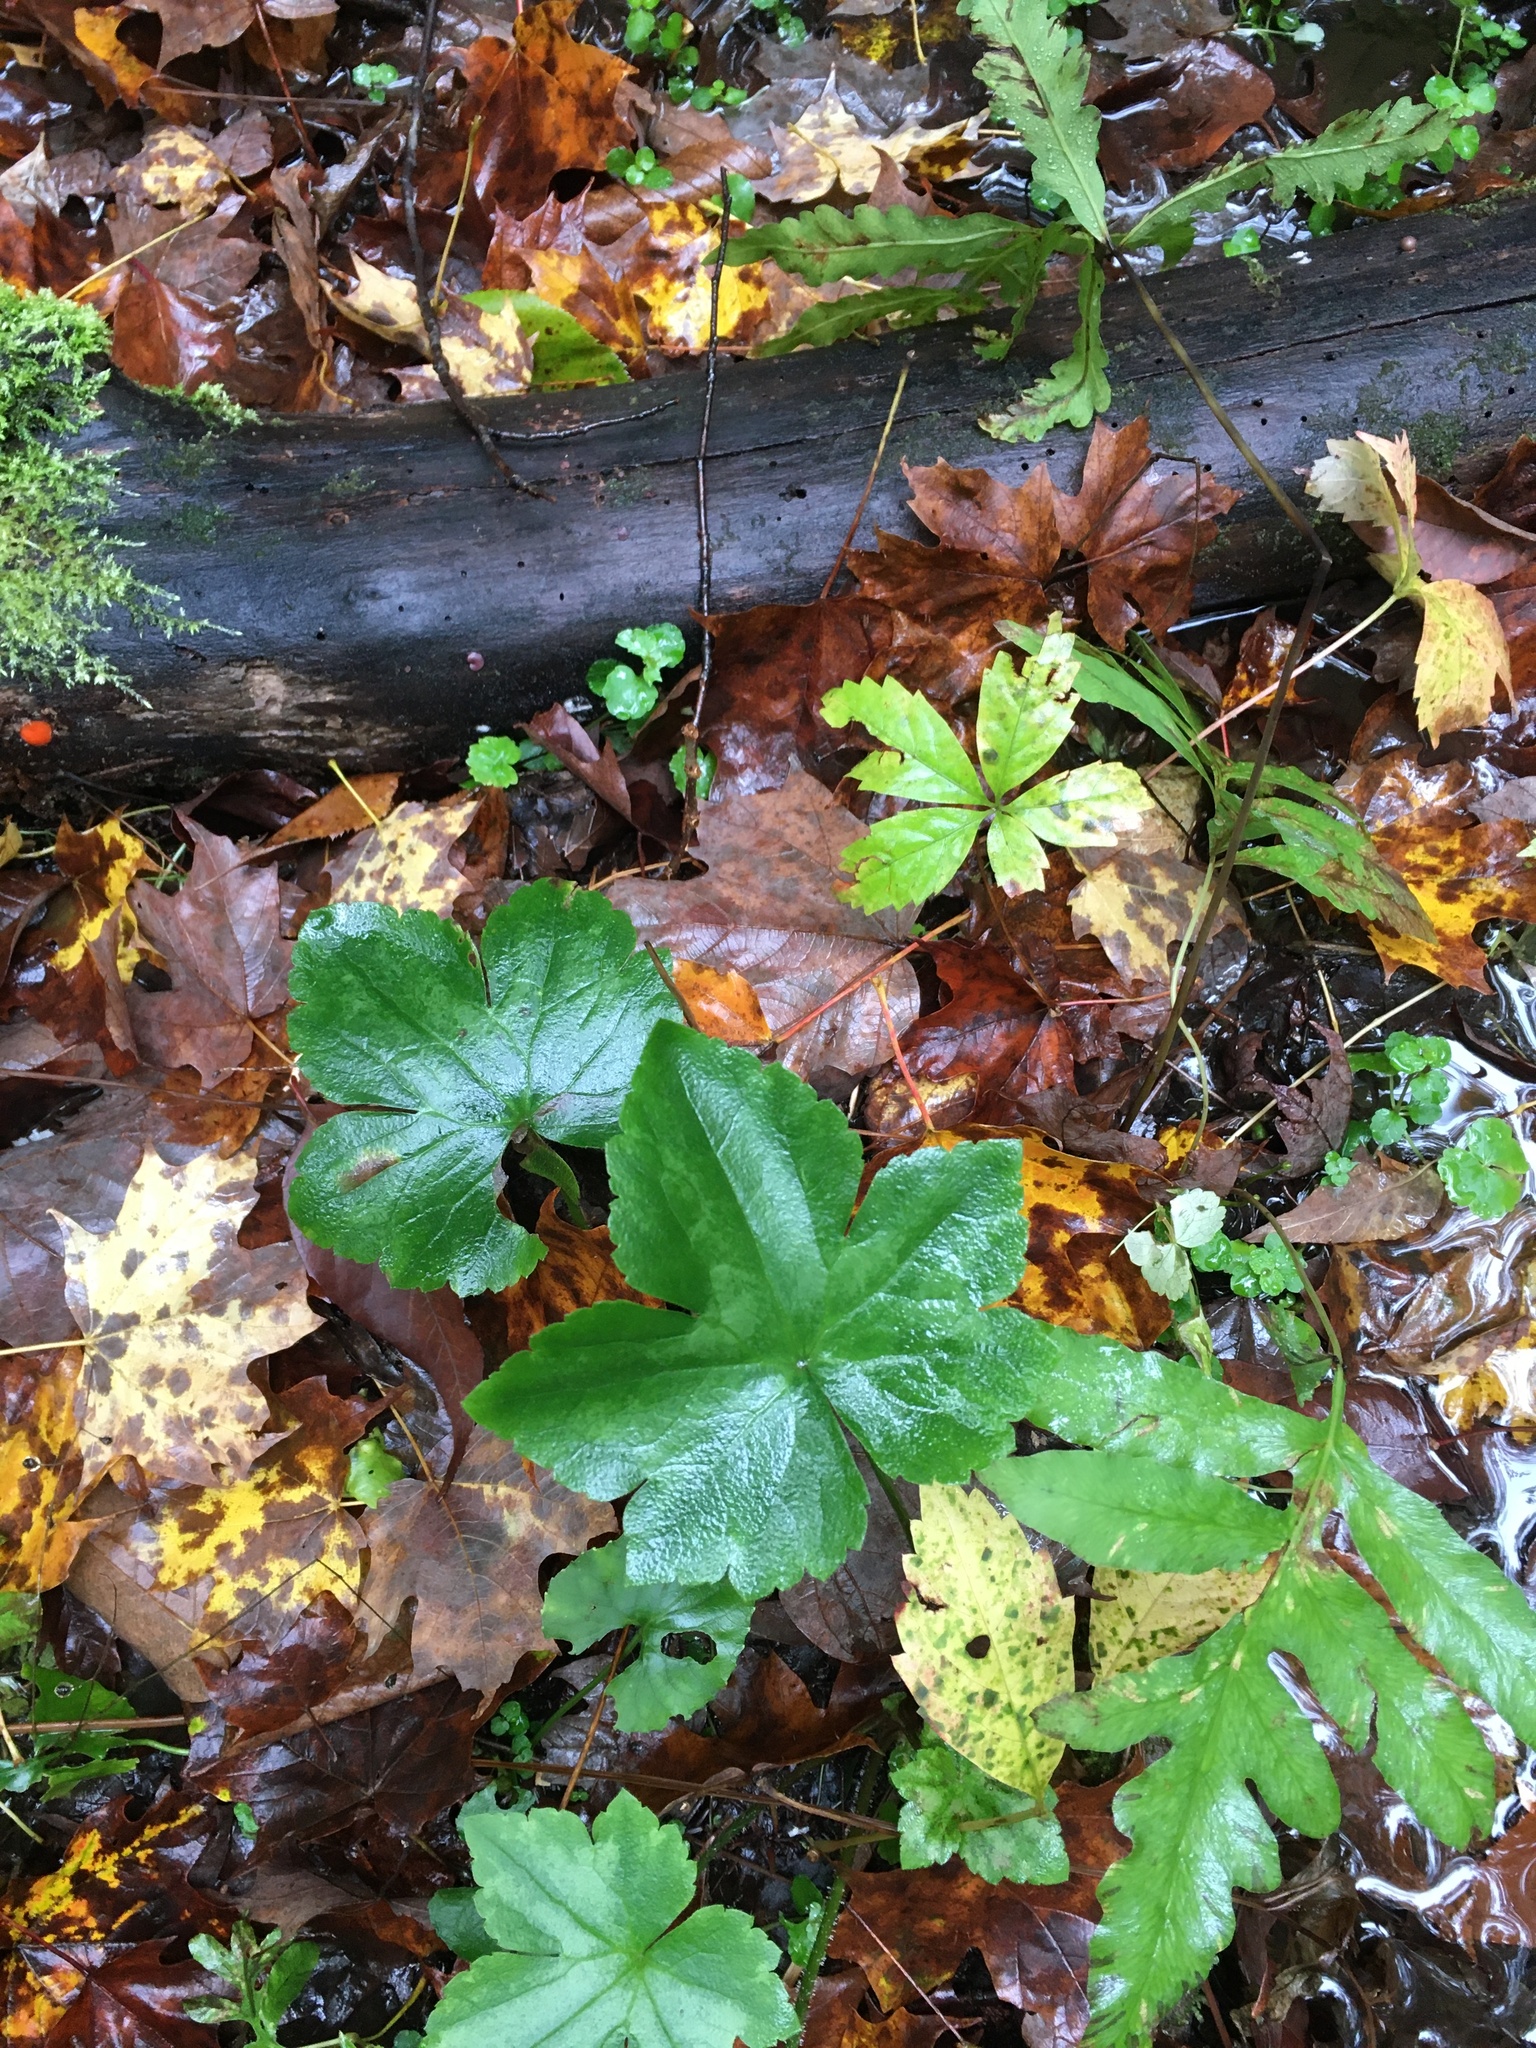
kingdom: Plantae
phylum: Tracheophyta
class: Magnoliopsida
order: Ranunculales
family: Ranunculaceae
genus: Ranunculus
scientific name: Ranunculus recurvatus
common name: Blisterwort
